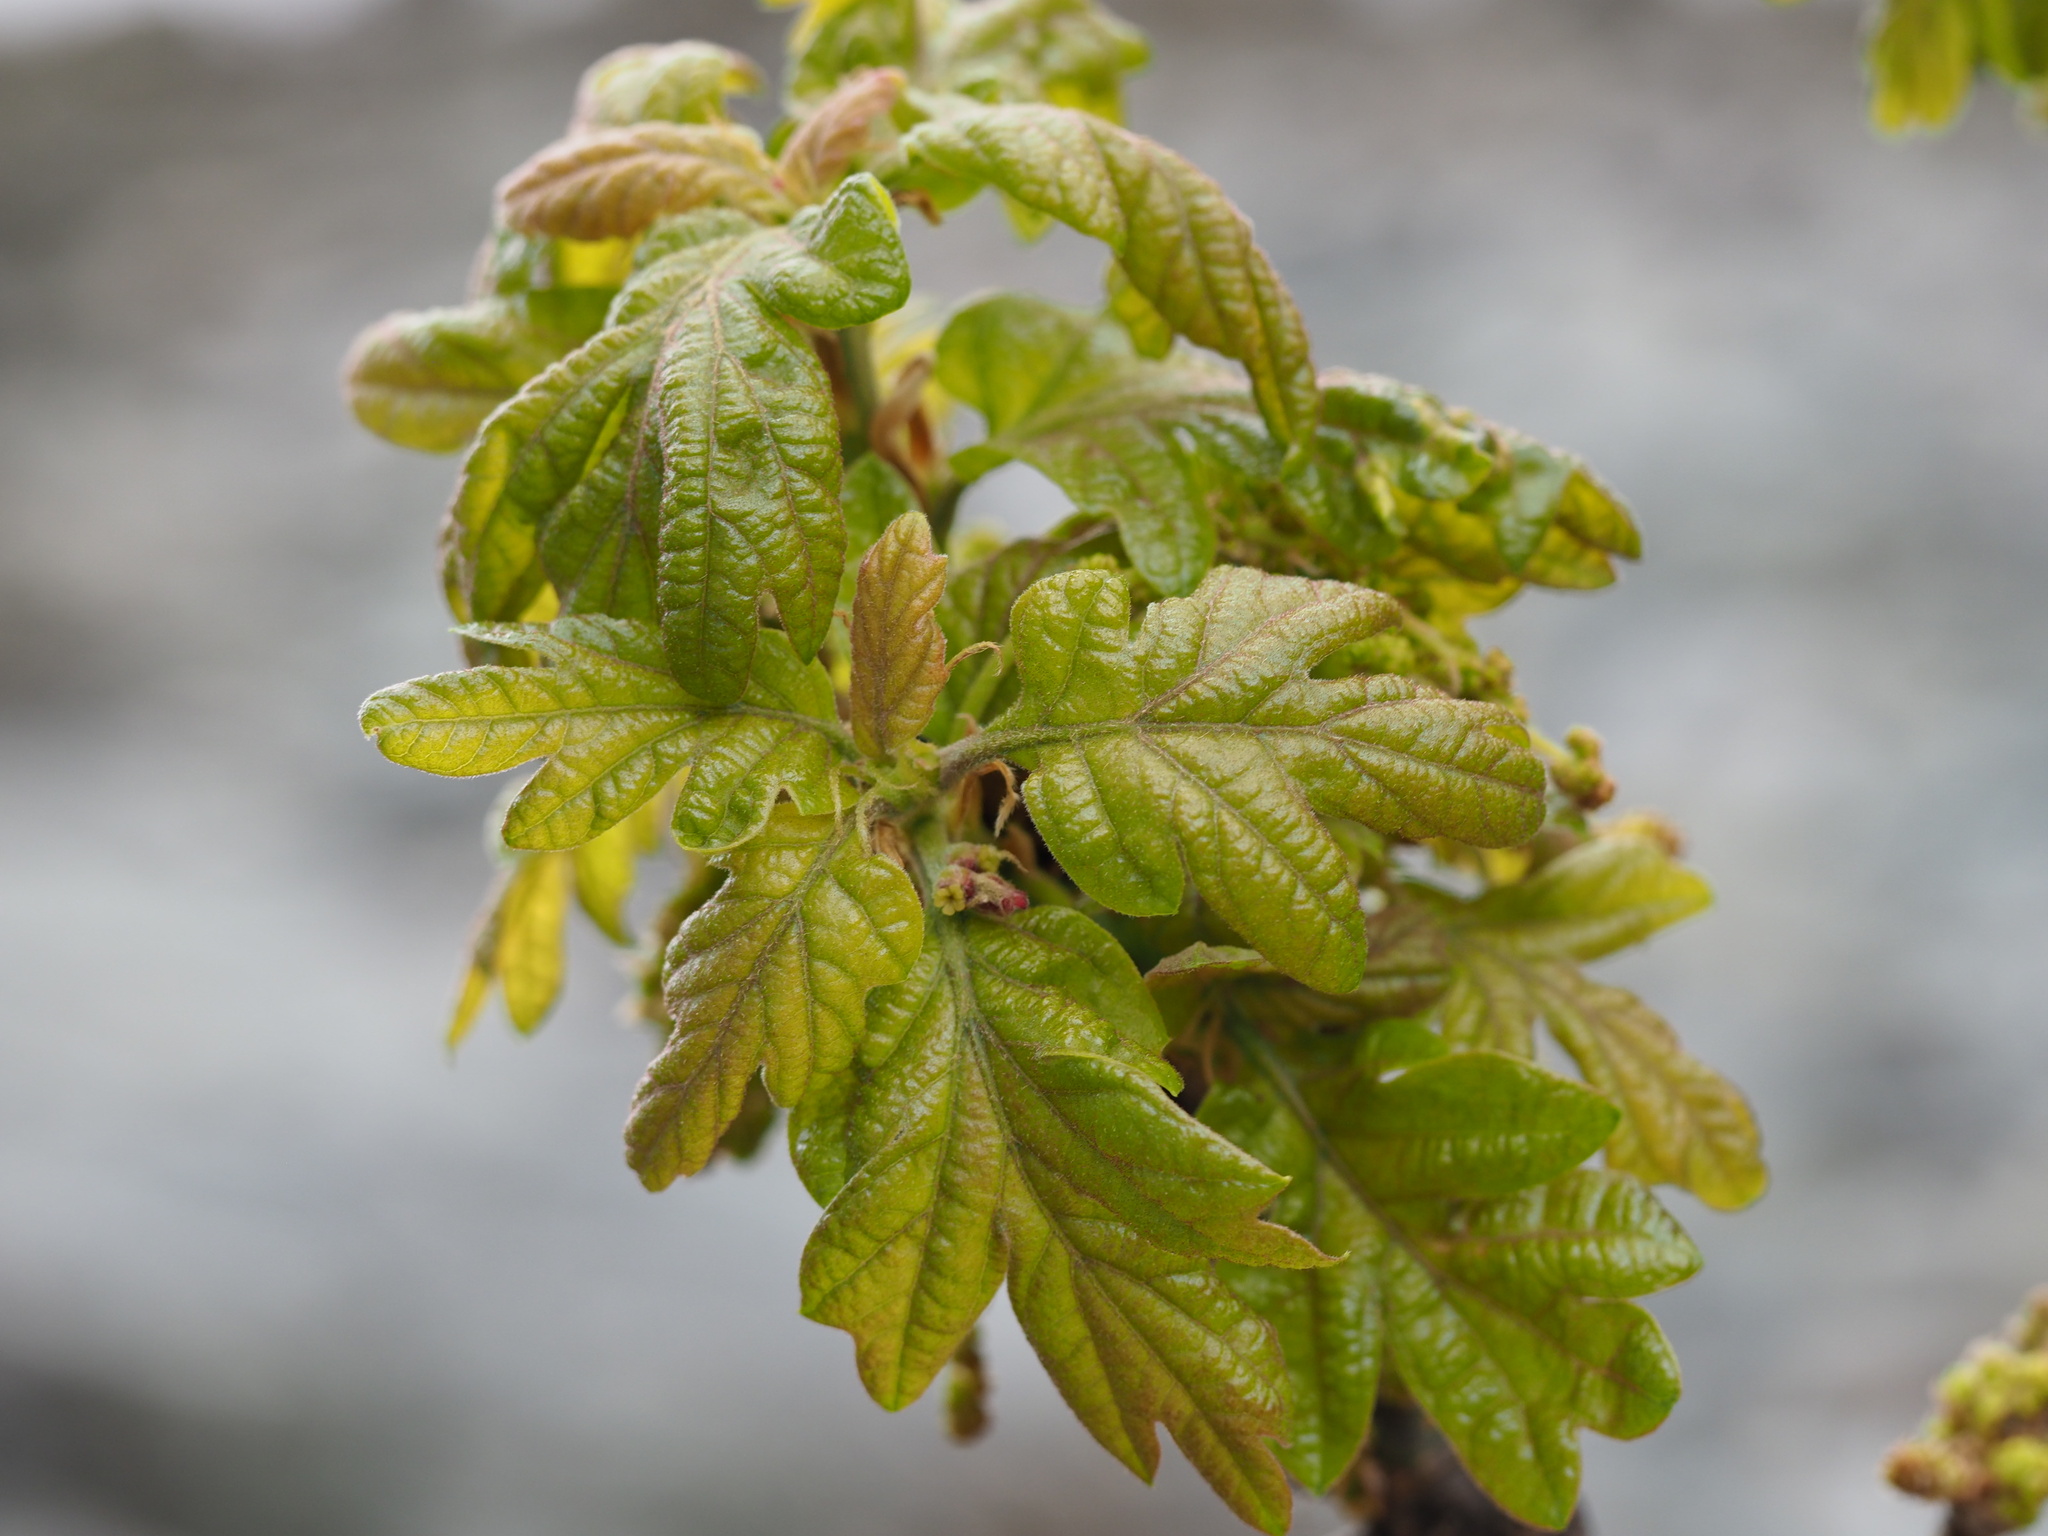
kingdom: Plantae
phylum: Tracheophyta
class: Magnoliopsida
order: Fagales
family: Fagaceae
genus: Quercus
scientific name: Quercus garryana
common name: Garry oak
